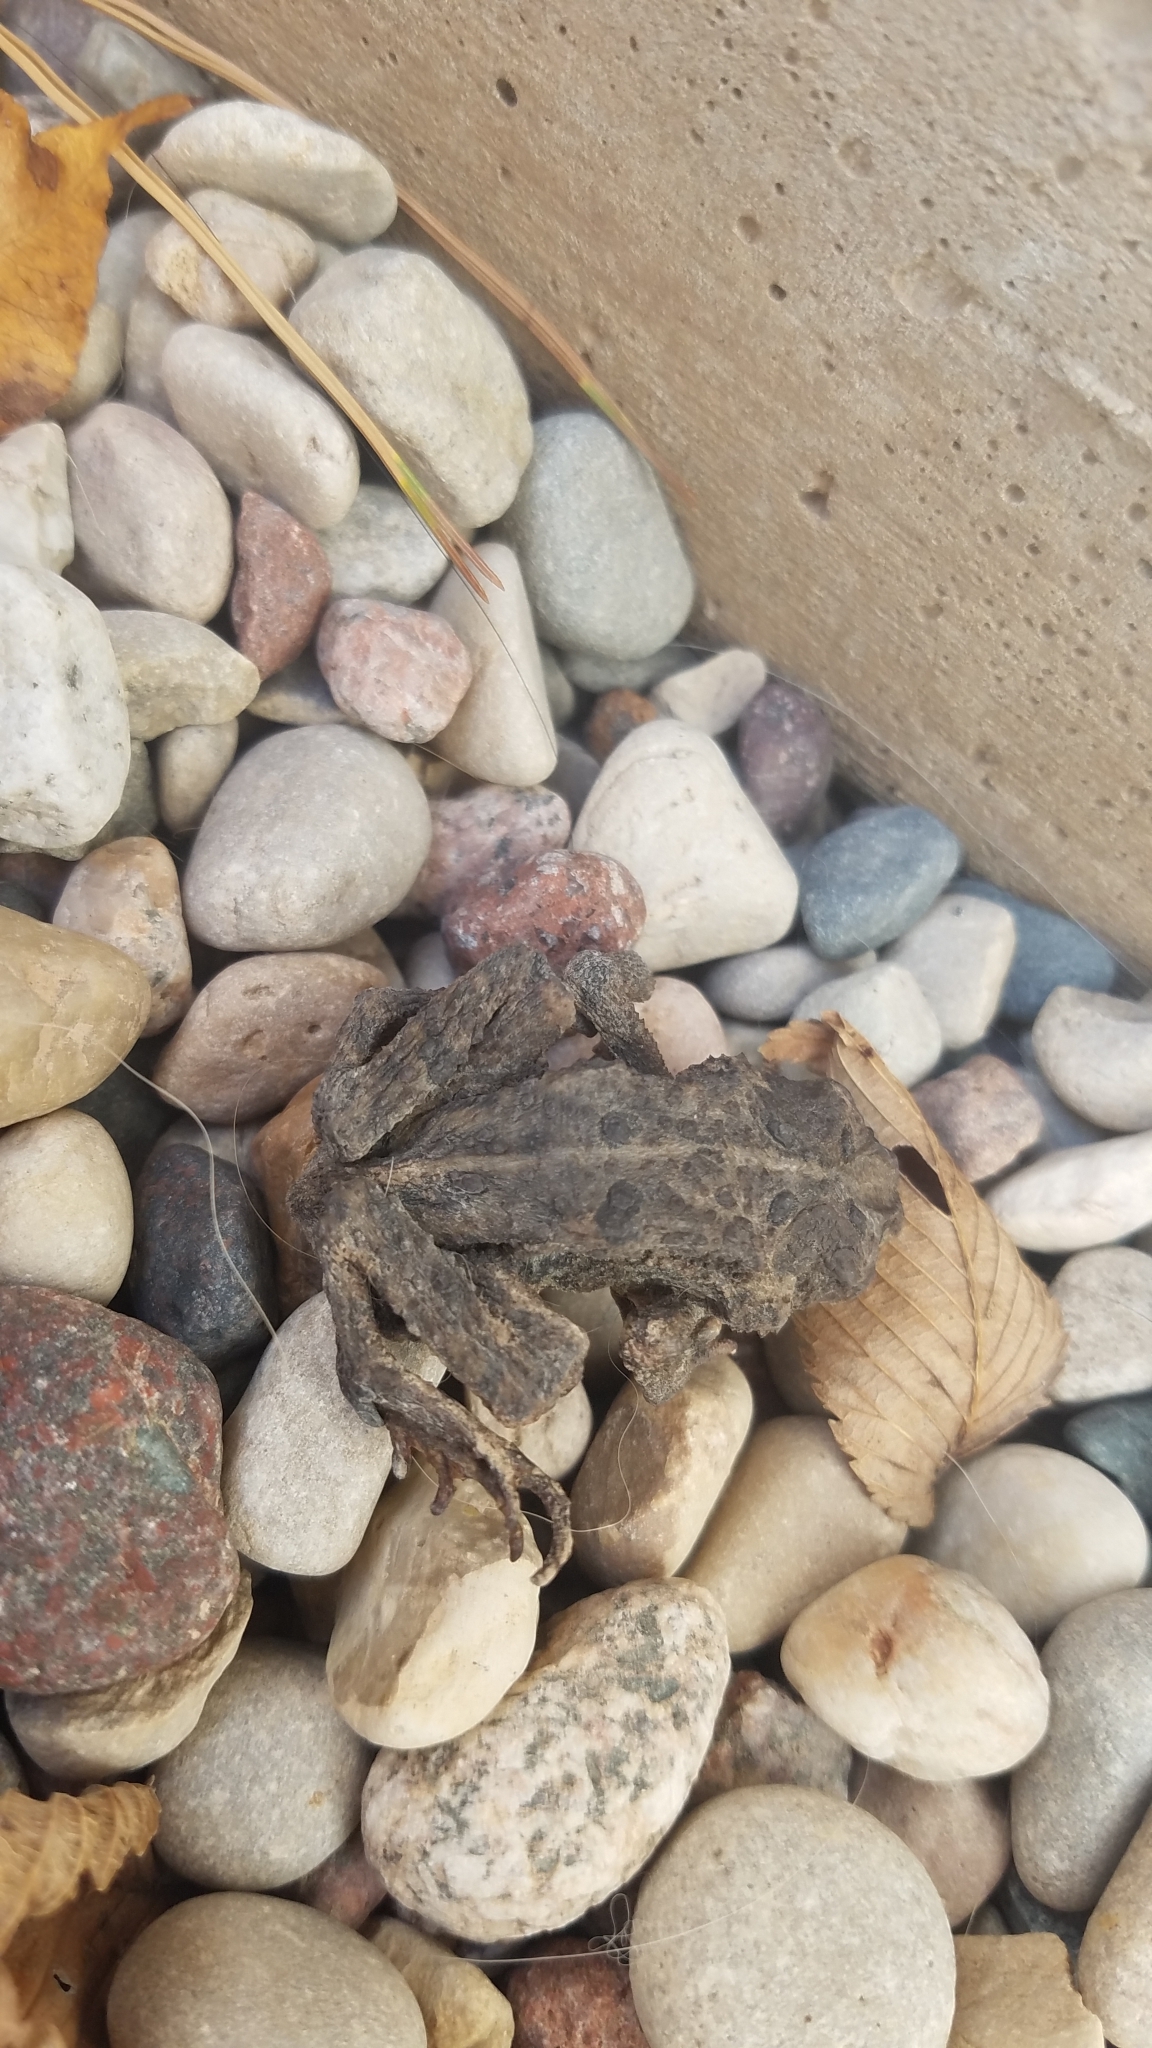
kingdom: Animalia
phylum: Chordata
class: Amphibia
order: Anura
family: Bufonidae
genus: Anaxyrus
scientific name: Anaxyrus americanus
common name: American toad
